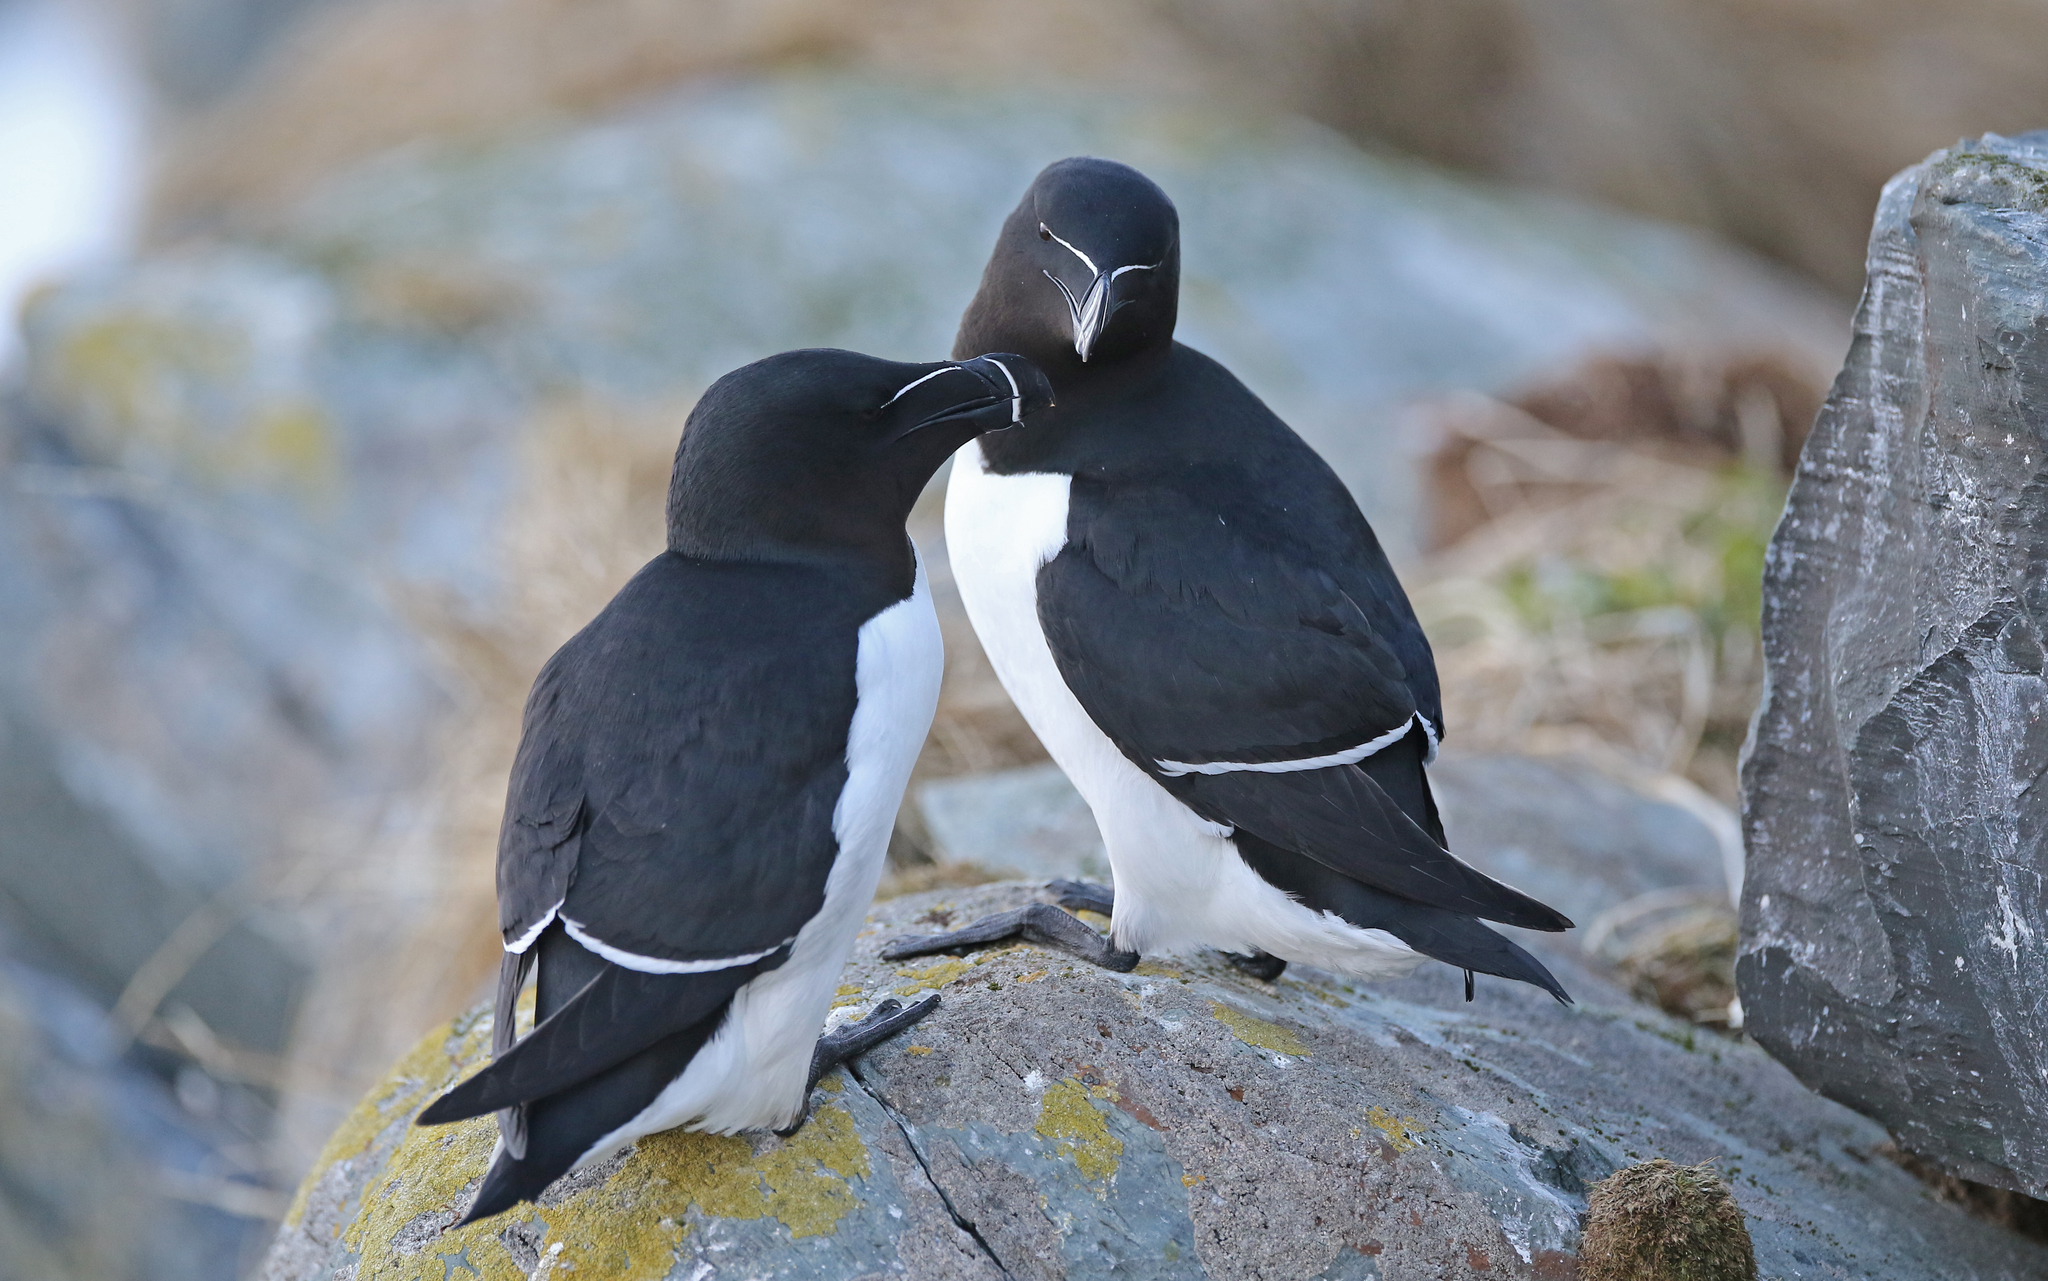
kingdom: Animalia
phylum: Chordata
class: Aves
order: Charadriiformes
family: Alcidae
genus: Alca
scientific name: Alca torda
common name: Razorbill
